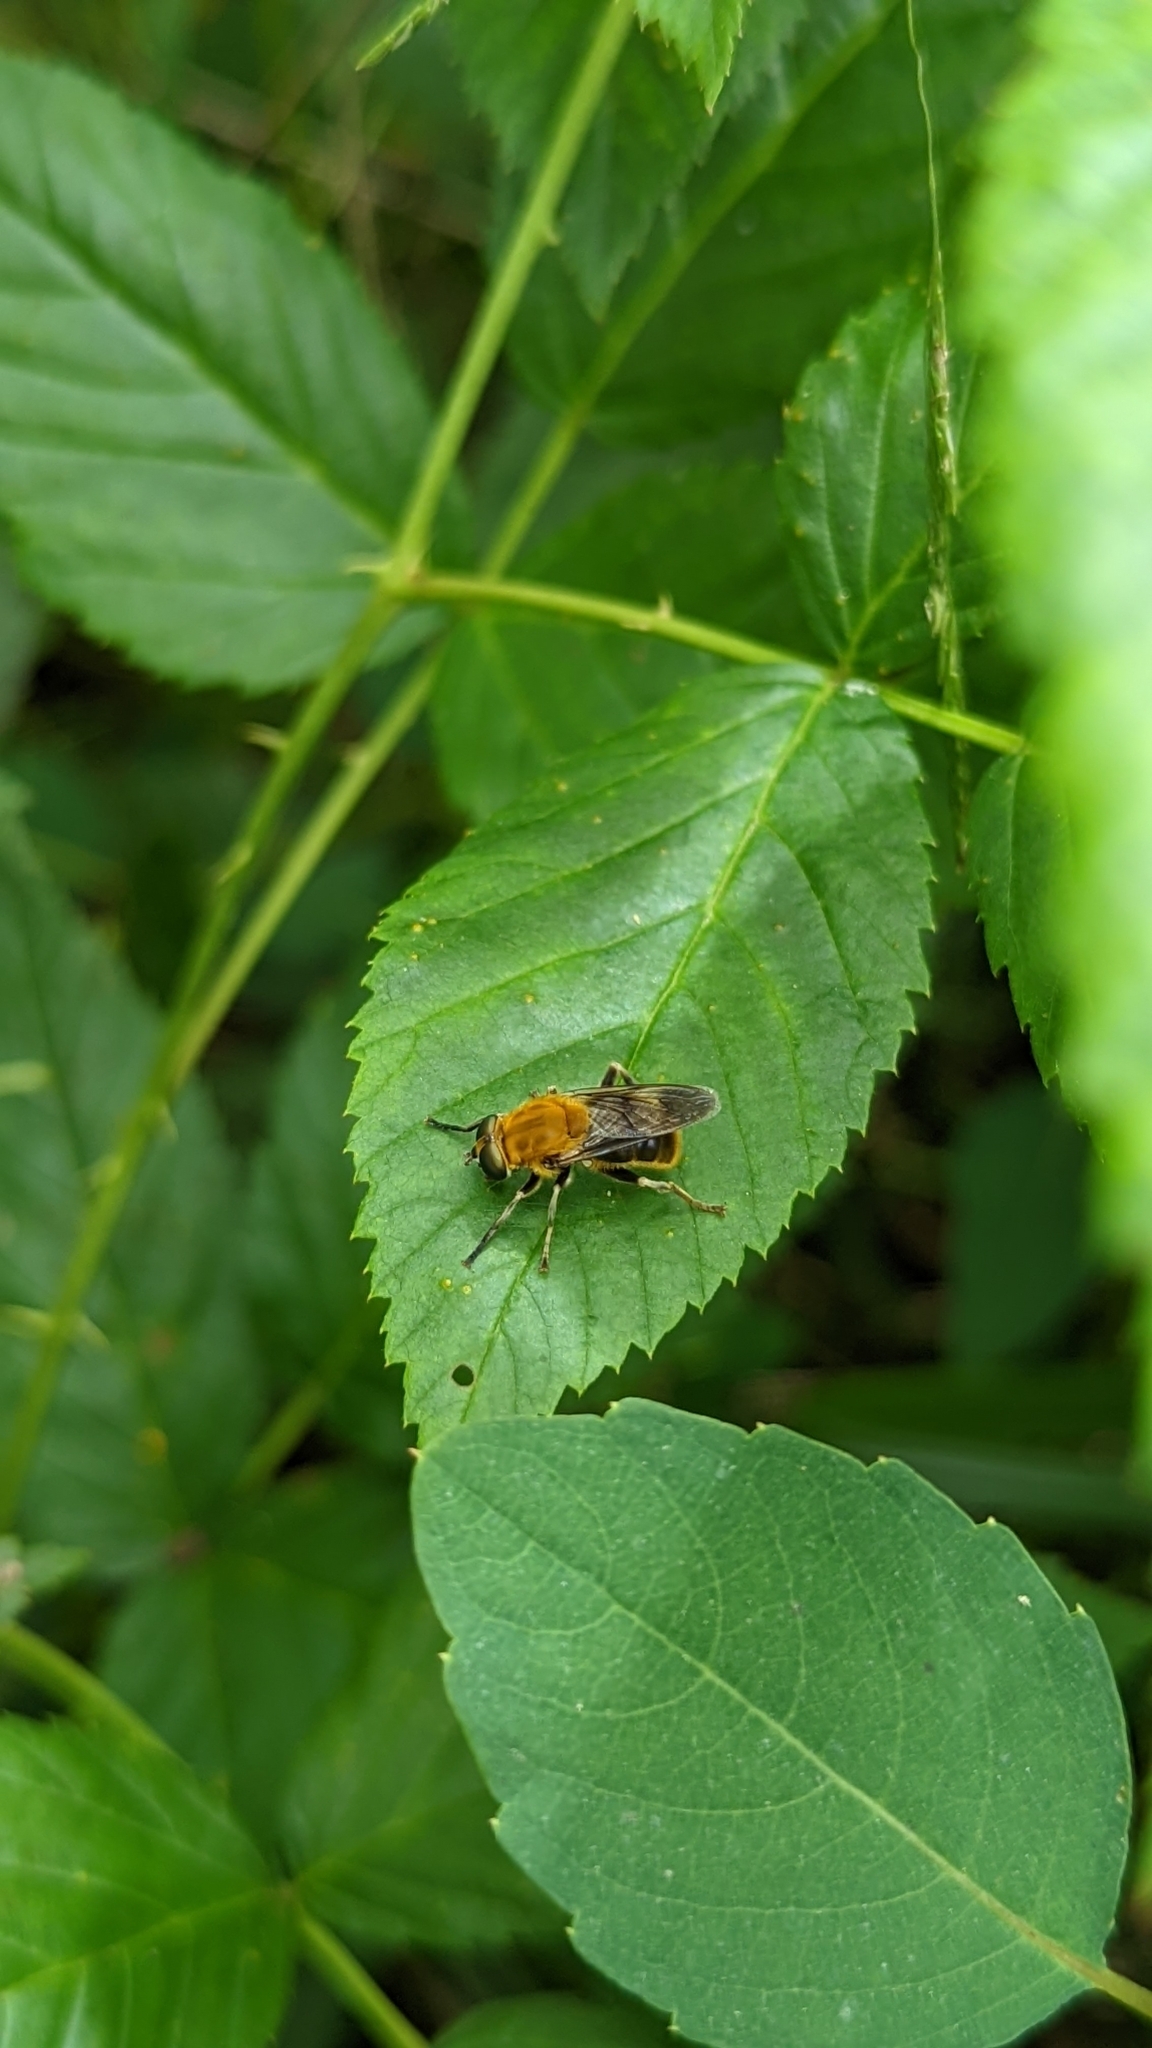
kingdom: Animalia
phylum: Arthropoda
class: Insecta
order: Diptera
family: Syrphidae
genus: Pterallastes
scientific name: Pterallastes thoracicus
